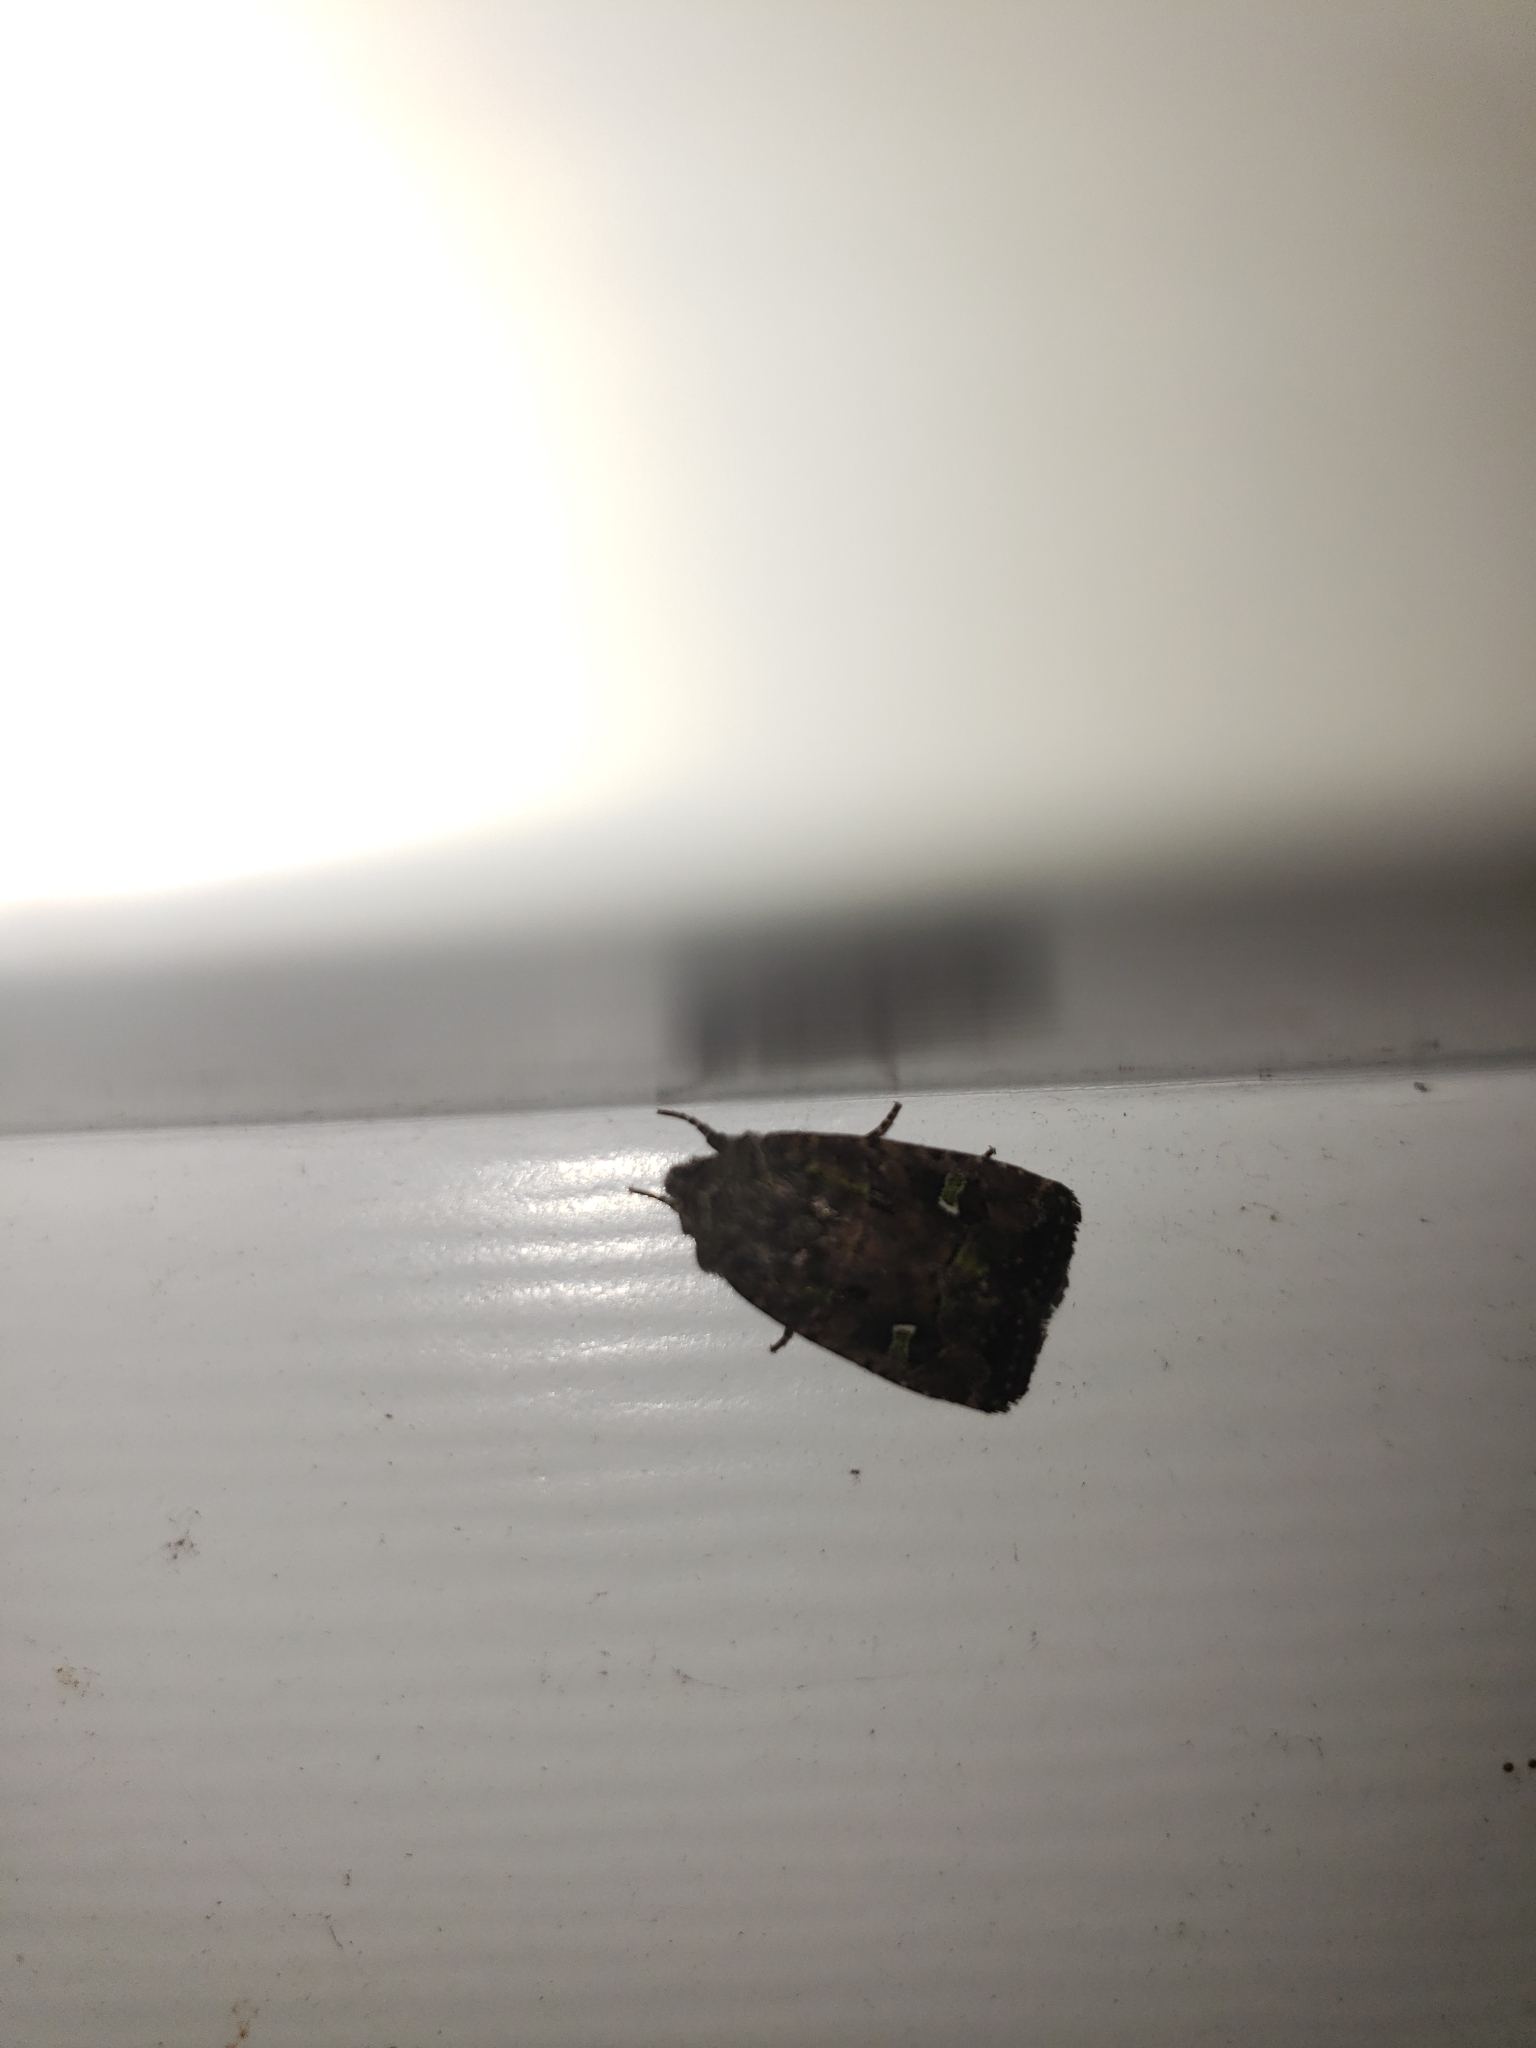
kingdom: Animalia
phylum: Arthropoda
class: Insecta
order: Lepidoptera
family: Noctuidae
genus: Lacinipolia
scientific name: Lacinipolia renigera
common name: Kidney-spotted minor
